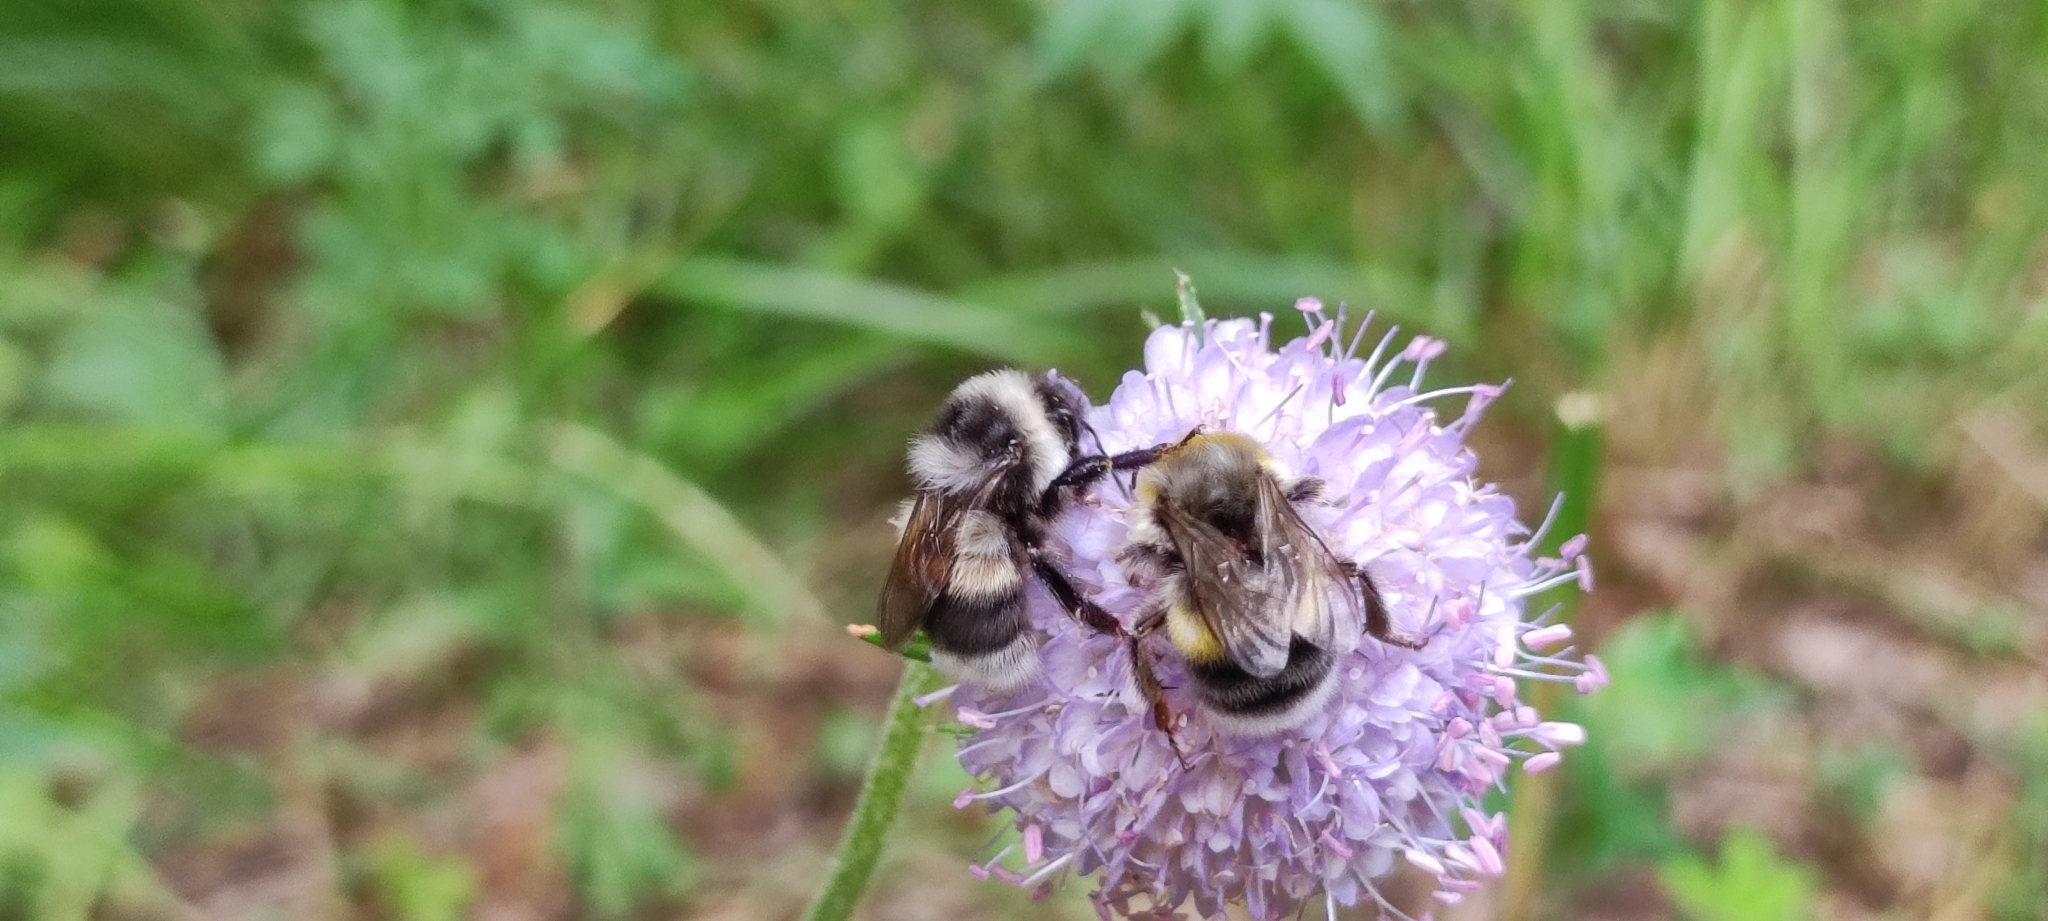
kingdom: Animalia
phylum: Arthropoda
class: Insecta
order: Hymenoptera
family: Apidae
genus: Bombus
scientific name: Bombus patagiatus
